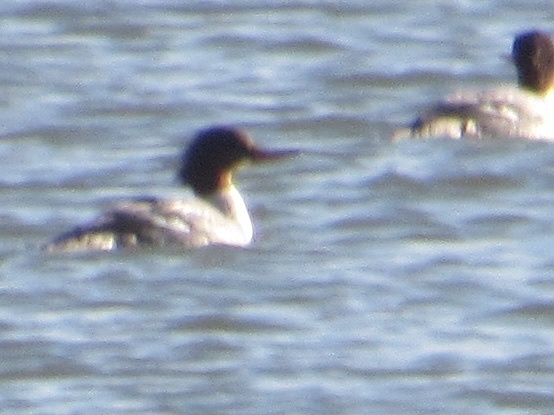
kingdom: Animalia
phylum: Chordata
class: Aves
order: Anseriformes
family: Anatidae
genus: Mergus
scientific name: Mergus merganser
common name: Common merganser
